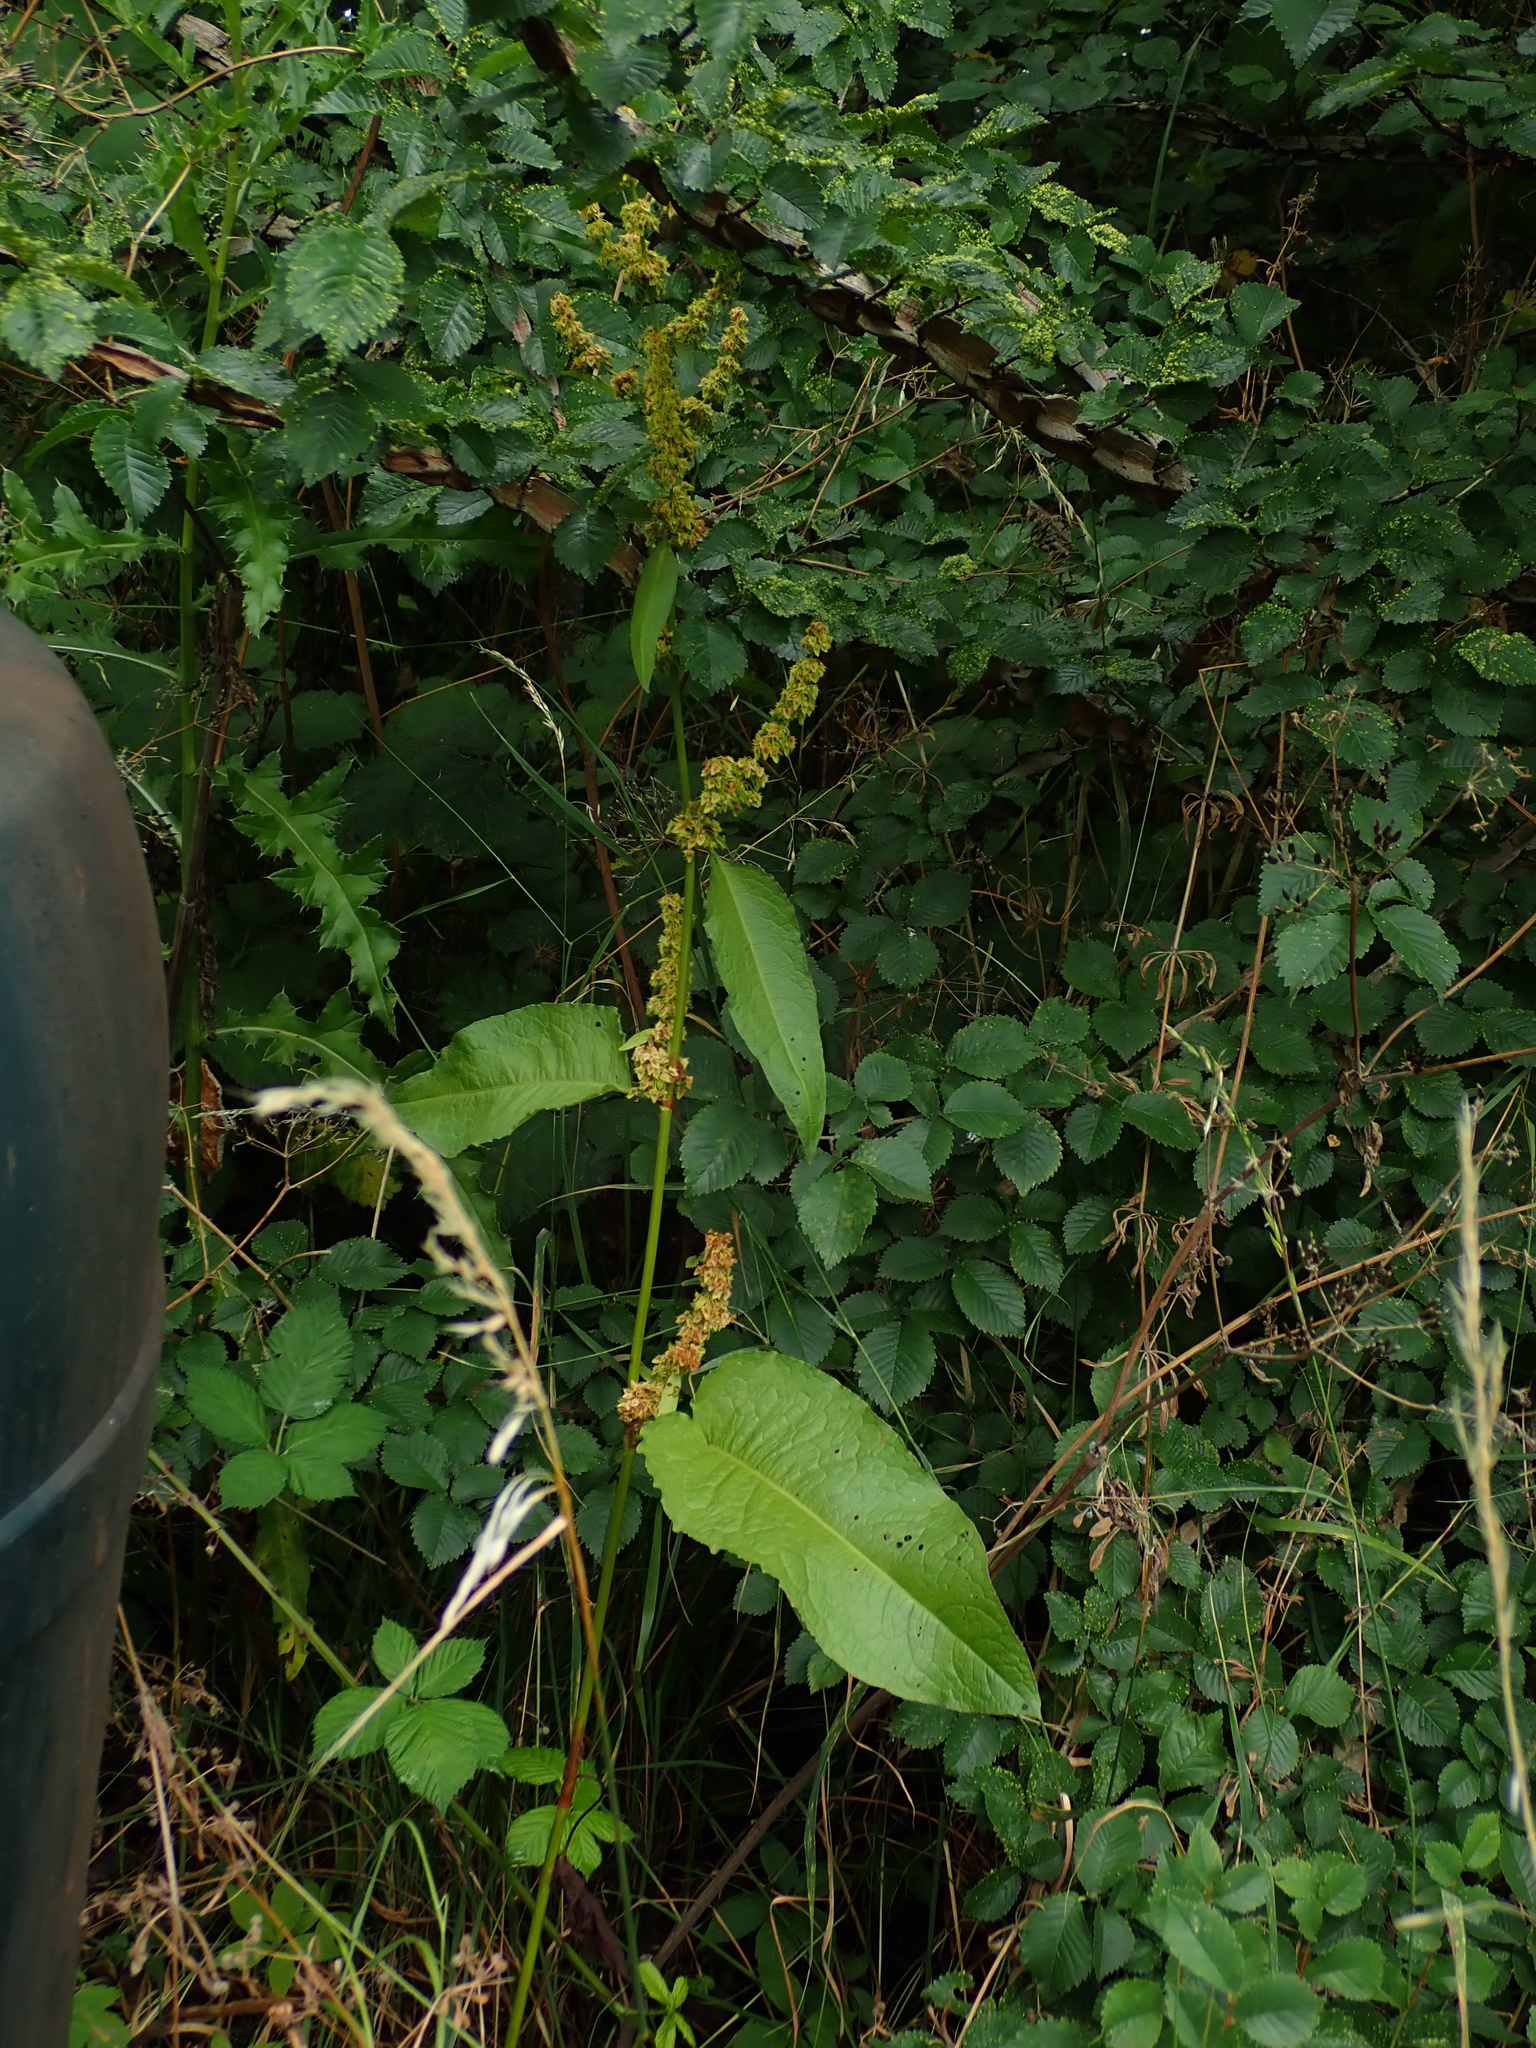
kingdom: Plantae
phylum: Tracheophyta
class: Magnoliopsida
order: Caryophyllales
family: Polygonaceae
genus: Rumex
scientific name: Rumex obtusifolius
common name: Bitter dock
